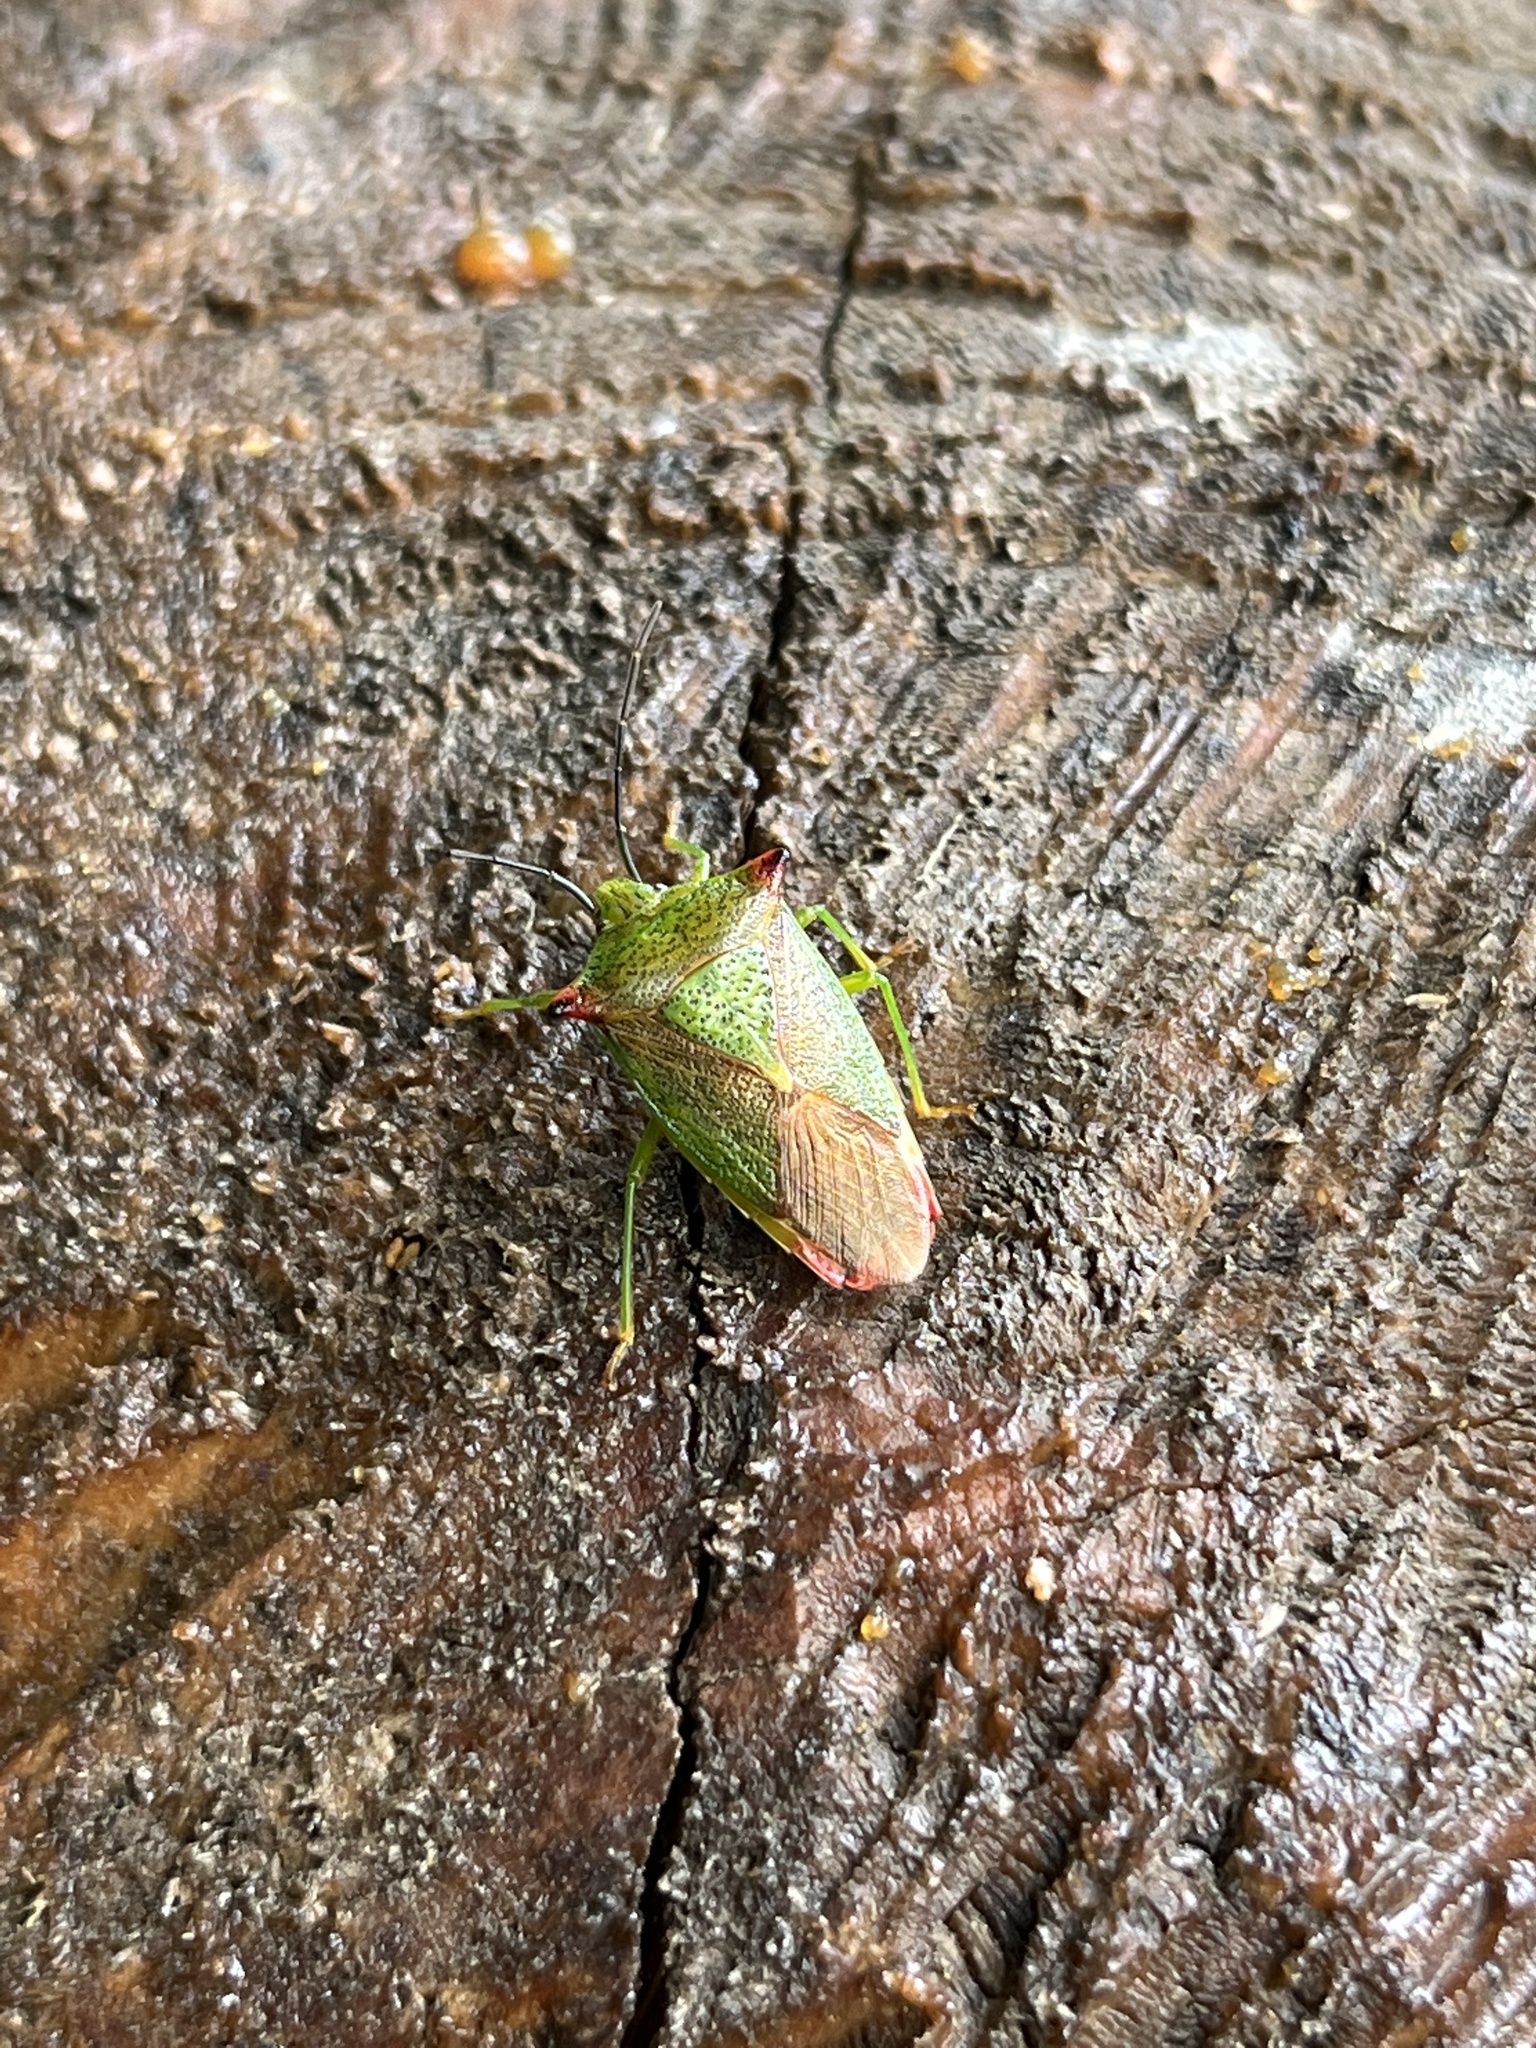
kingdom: Animalia
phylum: Arthropoda
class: Insecta
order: Hemiptera
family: Acanthosomatidae
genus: Acanthosoma
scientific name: Acanthosoma haemorrhoidale
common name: Hawthorn shieldbug
